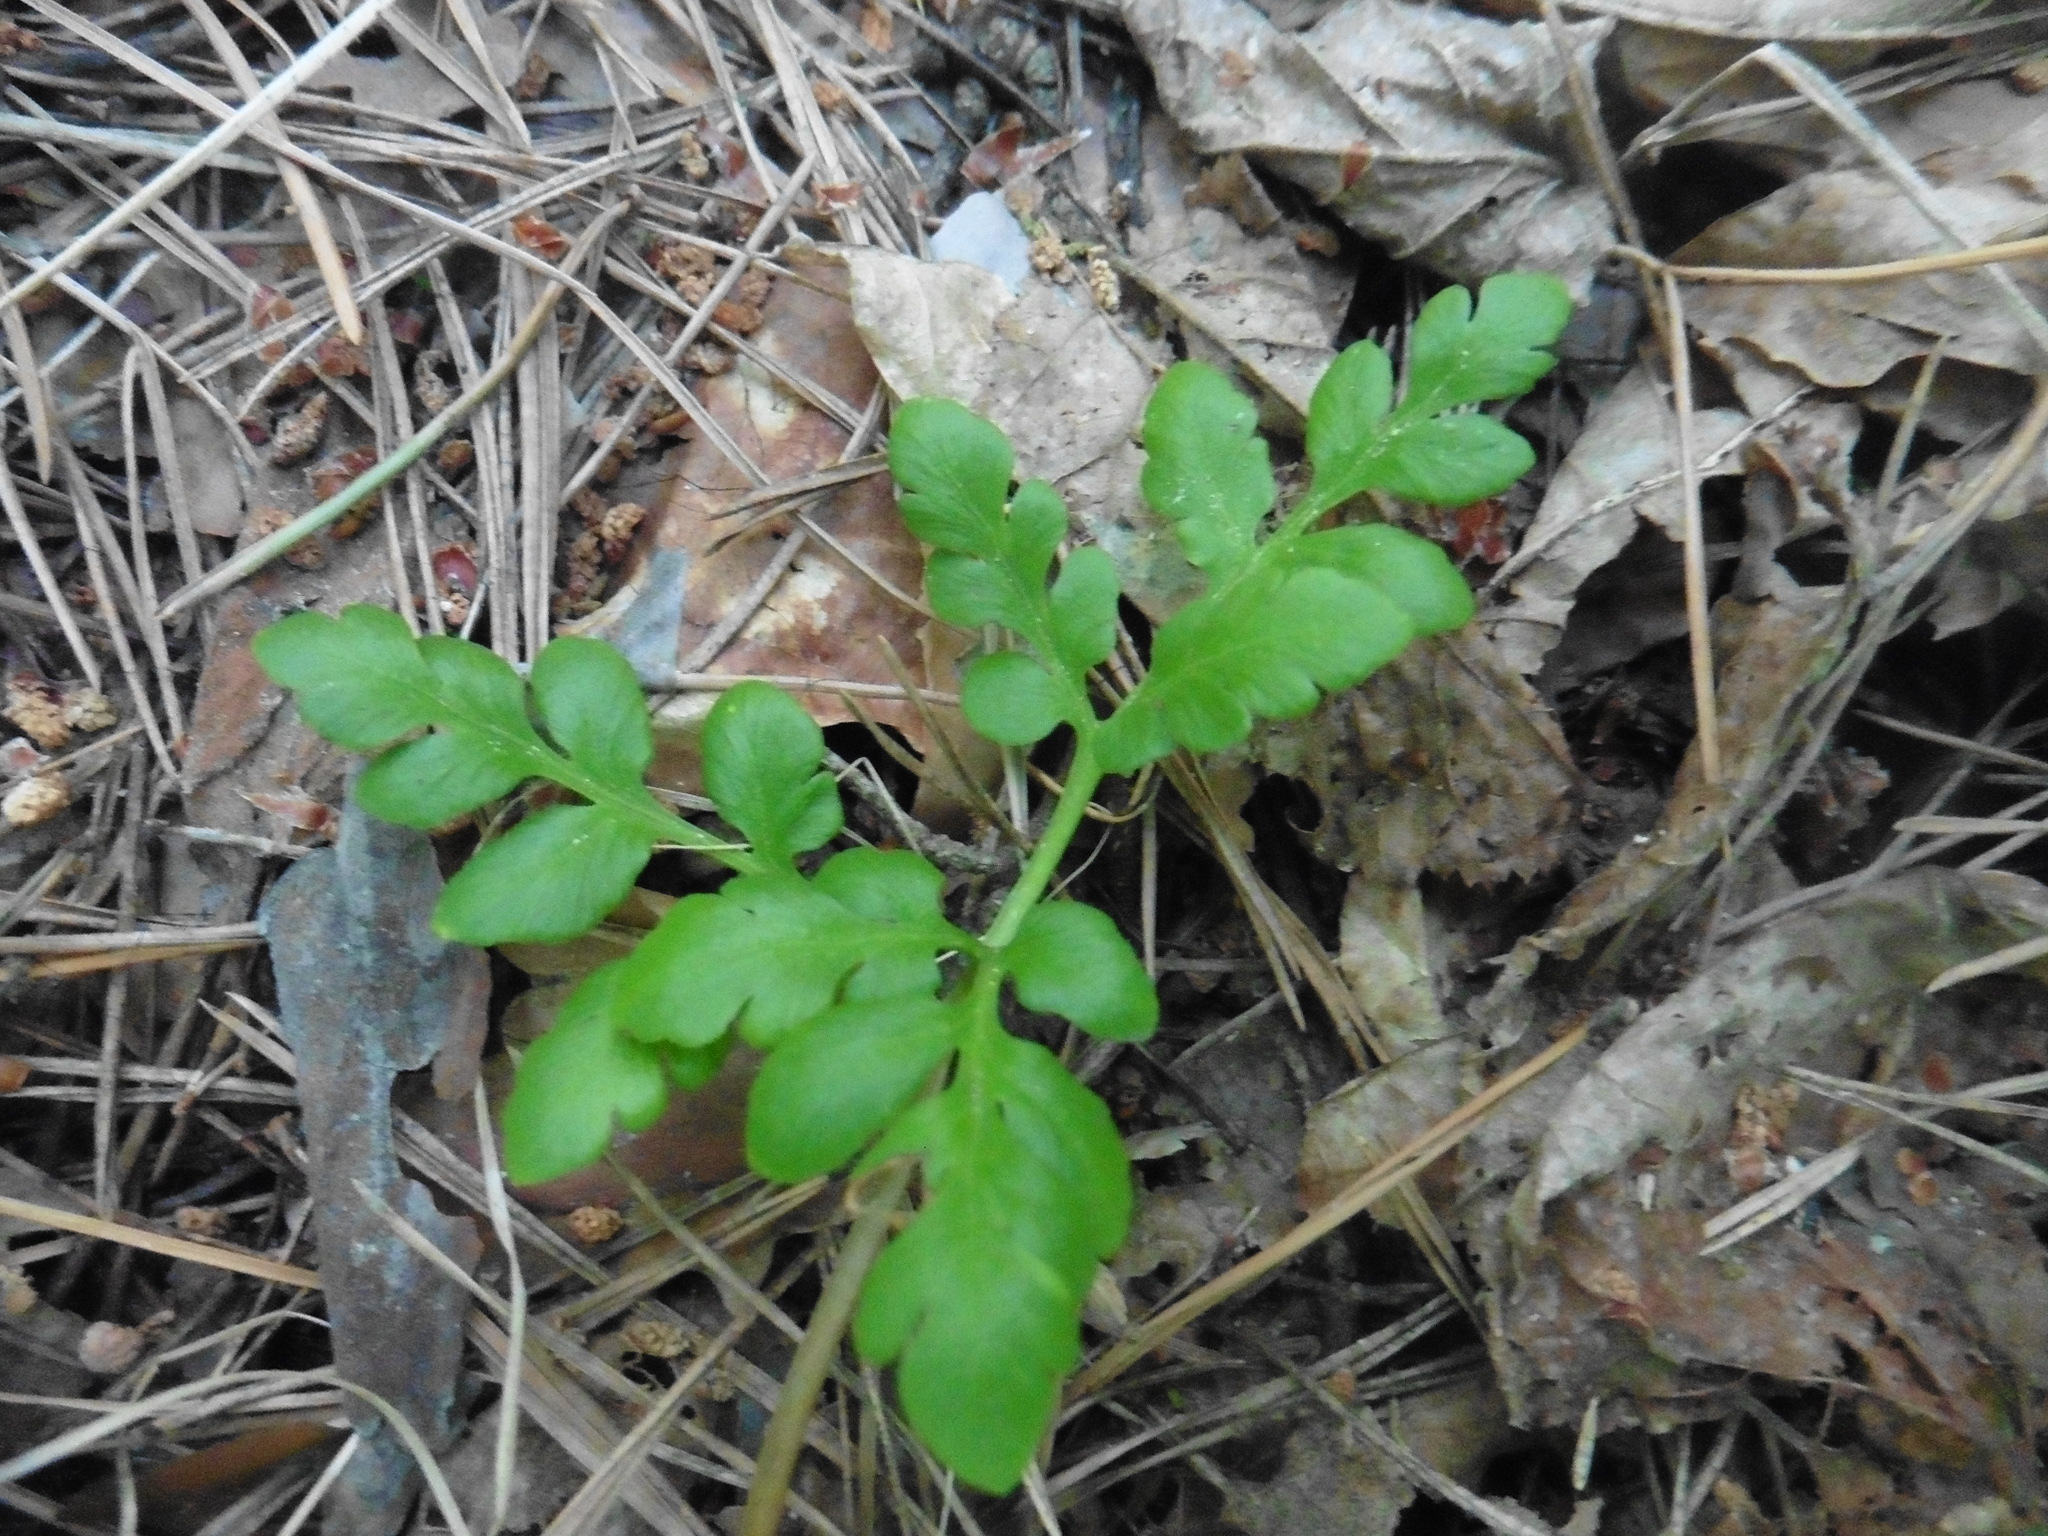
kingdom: Plantae
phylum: Tracheophyta
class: Polypodiopsida
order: Ophioglossales
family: Ophioglossaceae
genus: Sceptridium
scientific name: Sceptridium multifidum
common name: Leathery grape fern
